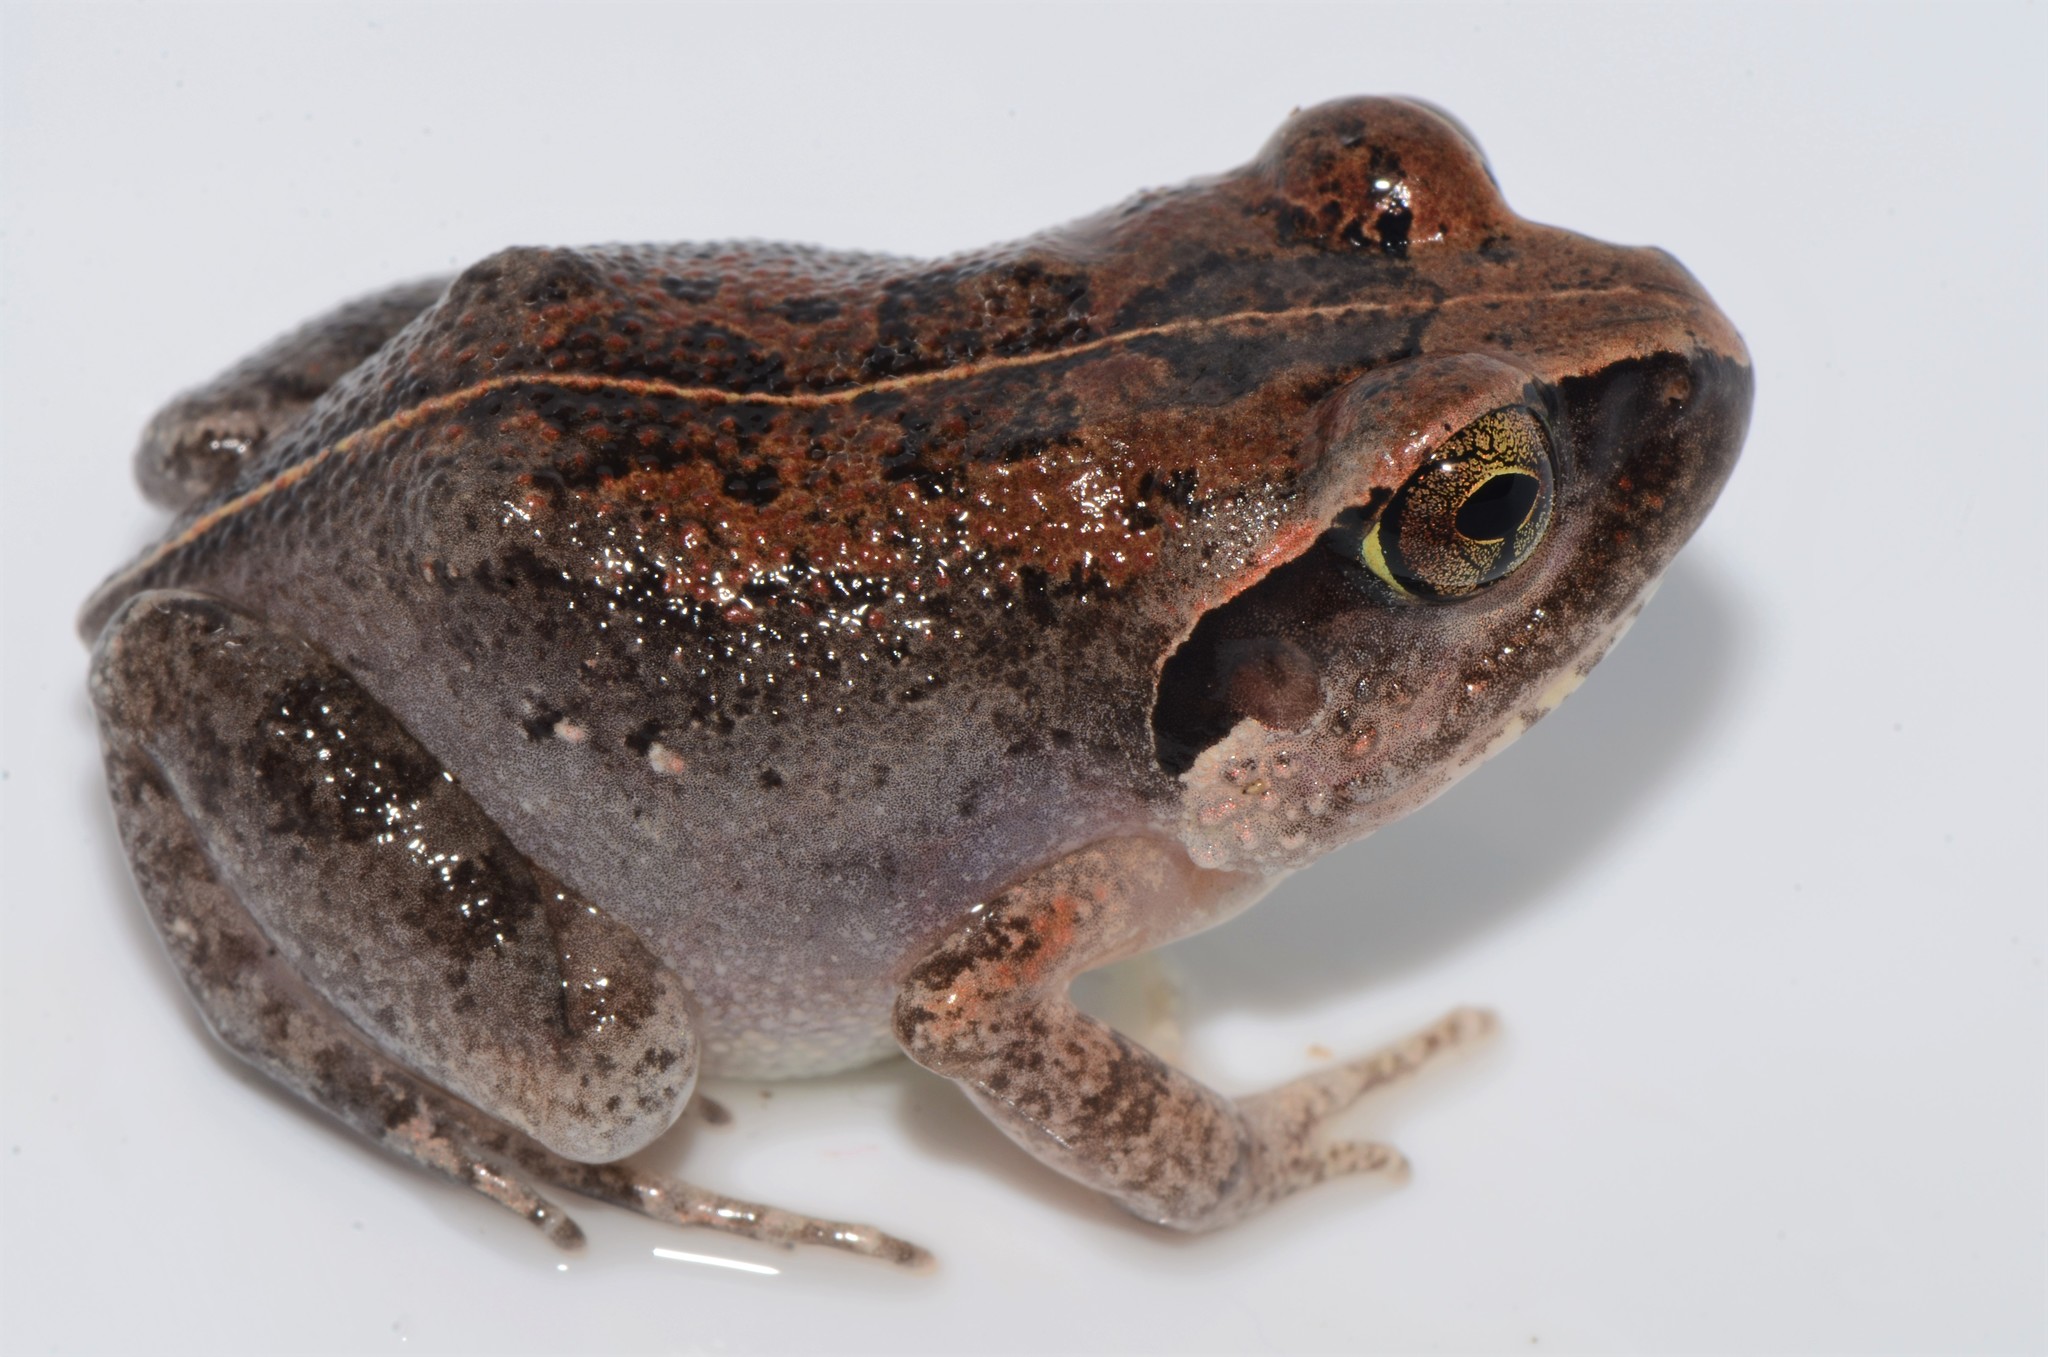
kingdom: Animalia
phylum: Chordata
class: Amphibia
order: Anura
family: Arthroleptidae
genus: Arthroleptis
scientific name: Arthroleptis stenodactylus
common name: Dune squeaker
